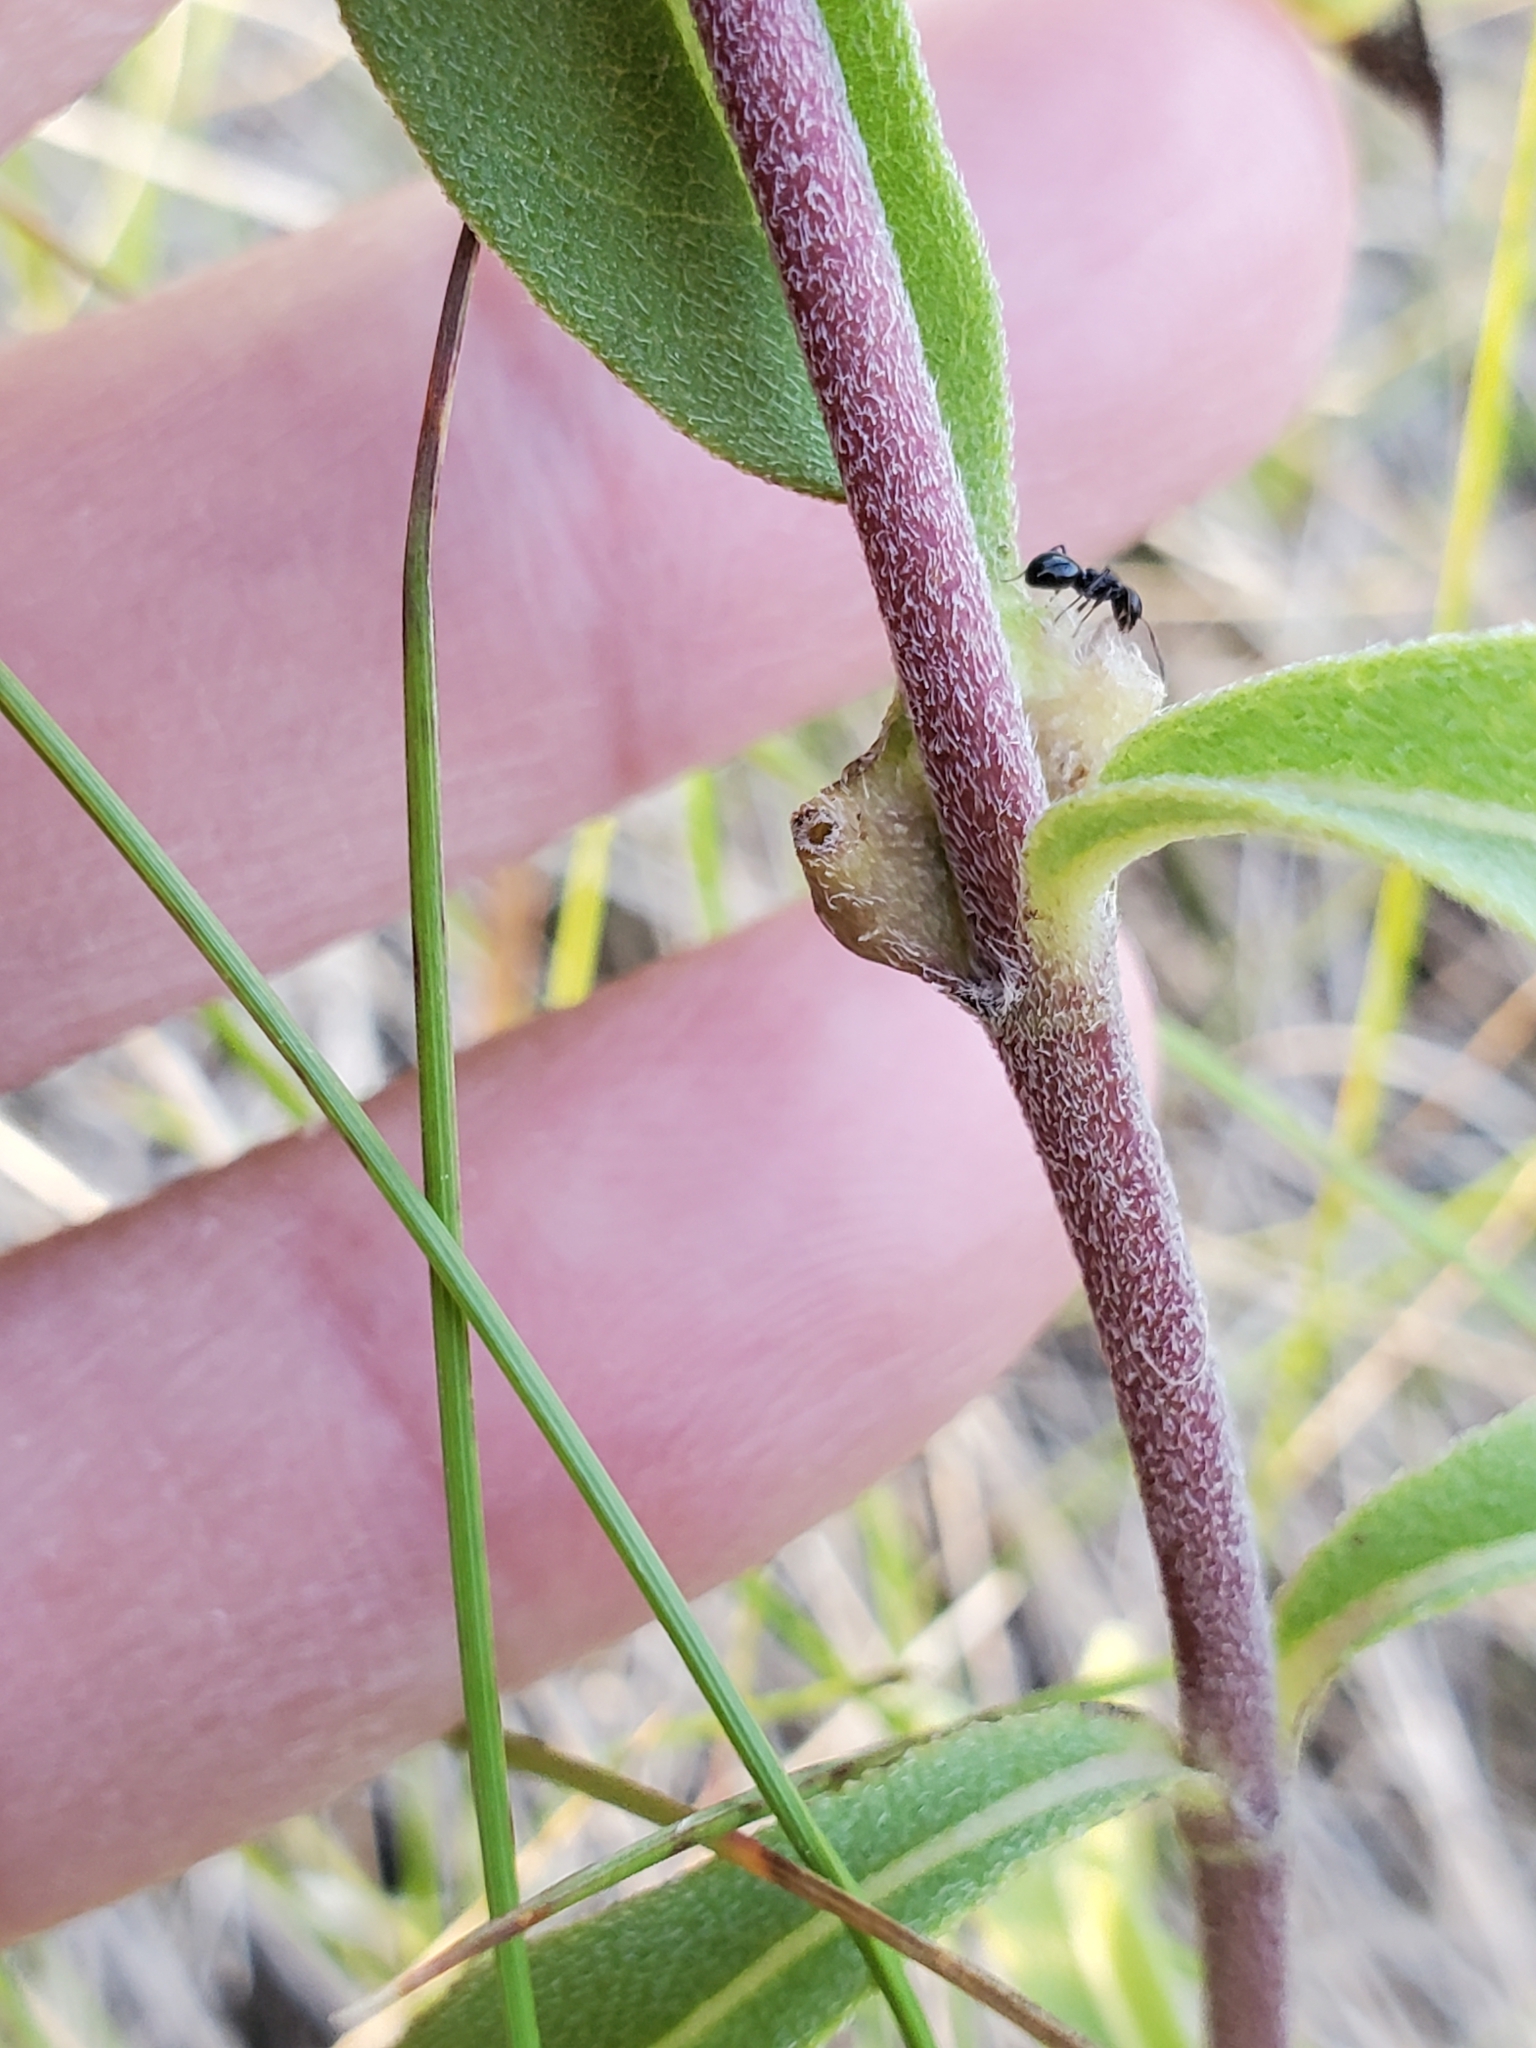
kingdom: Animalia
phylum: Arthropoda
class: Insecta
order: Diptera
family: Cecidomyiidae
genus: Pilodiplosis
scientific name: Pilodiplosis helianthibulla
